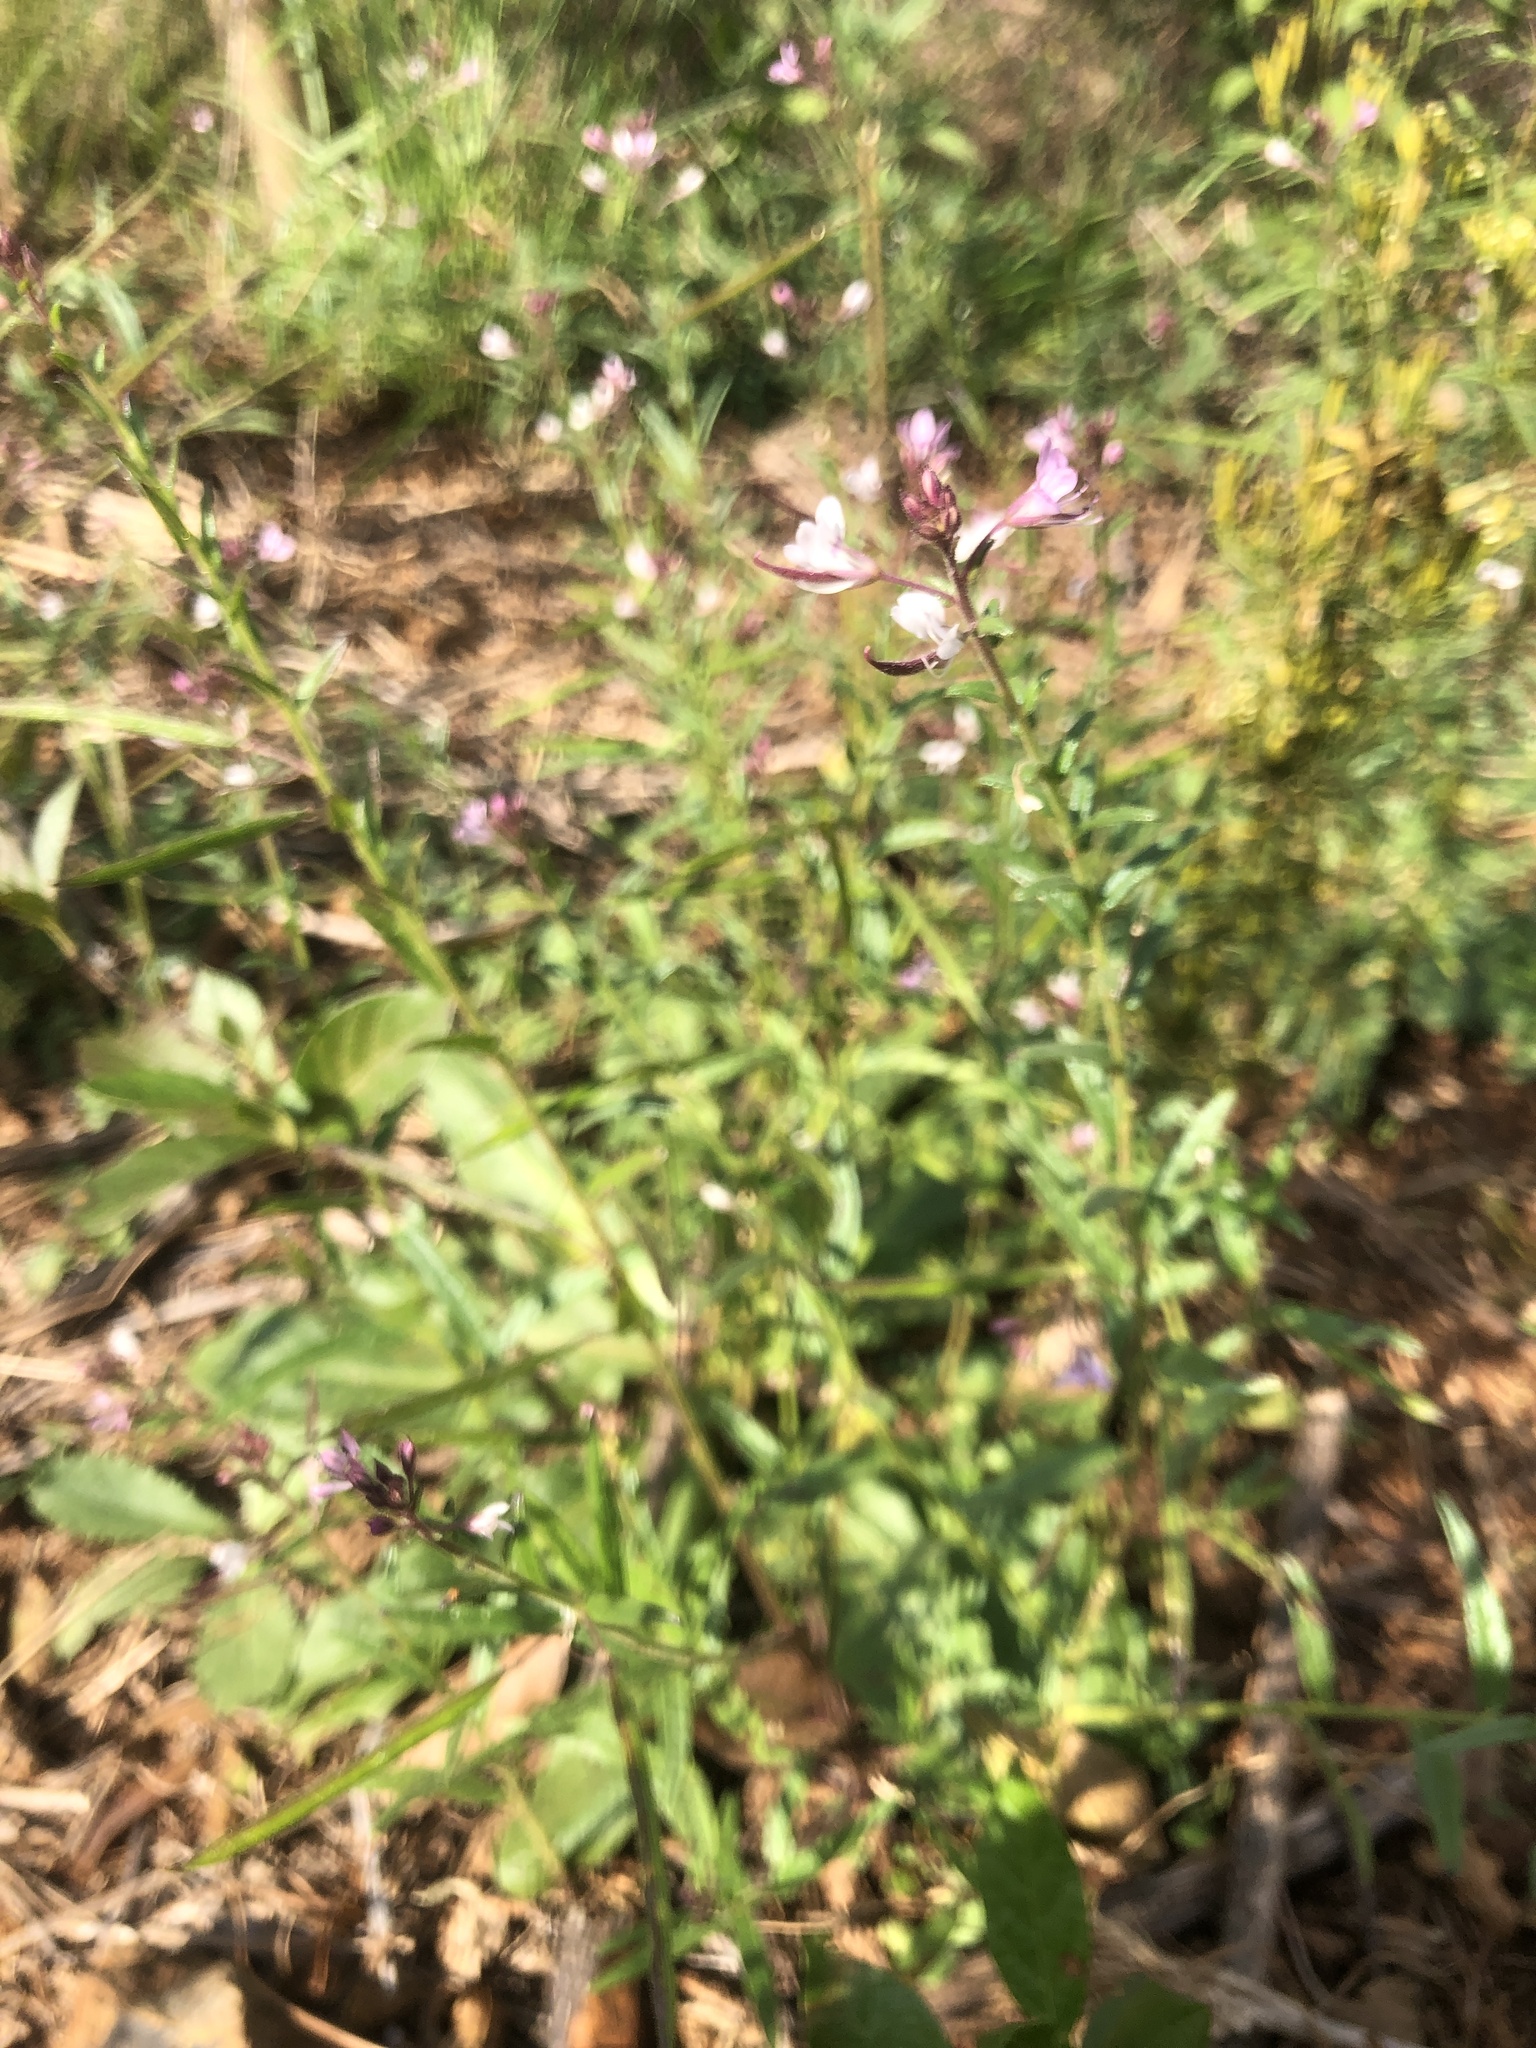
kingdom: Plantae
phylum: Tracheophyta
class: Magnoliopsida
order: Brassicales
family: Cleomaceae
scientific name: Cleomaceae
